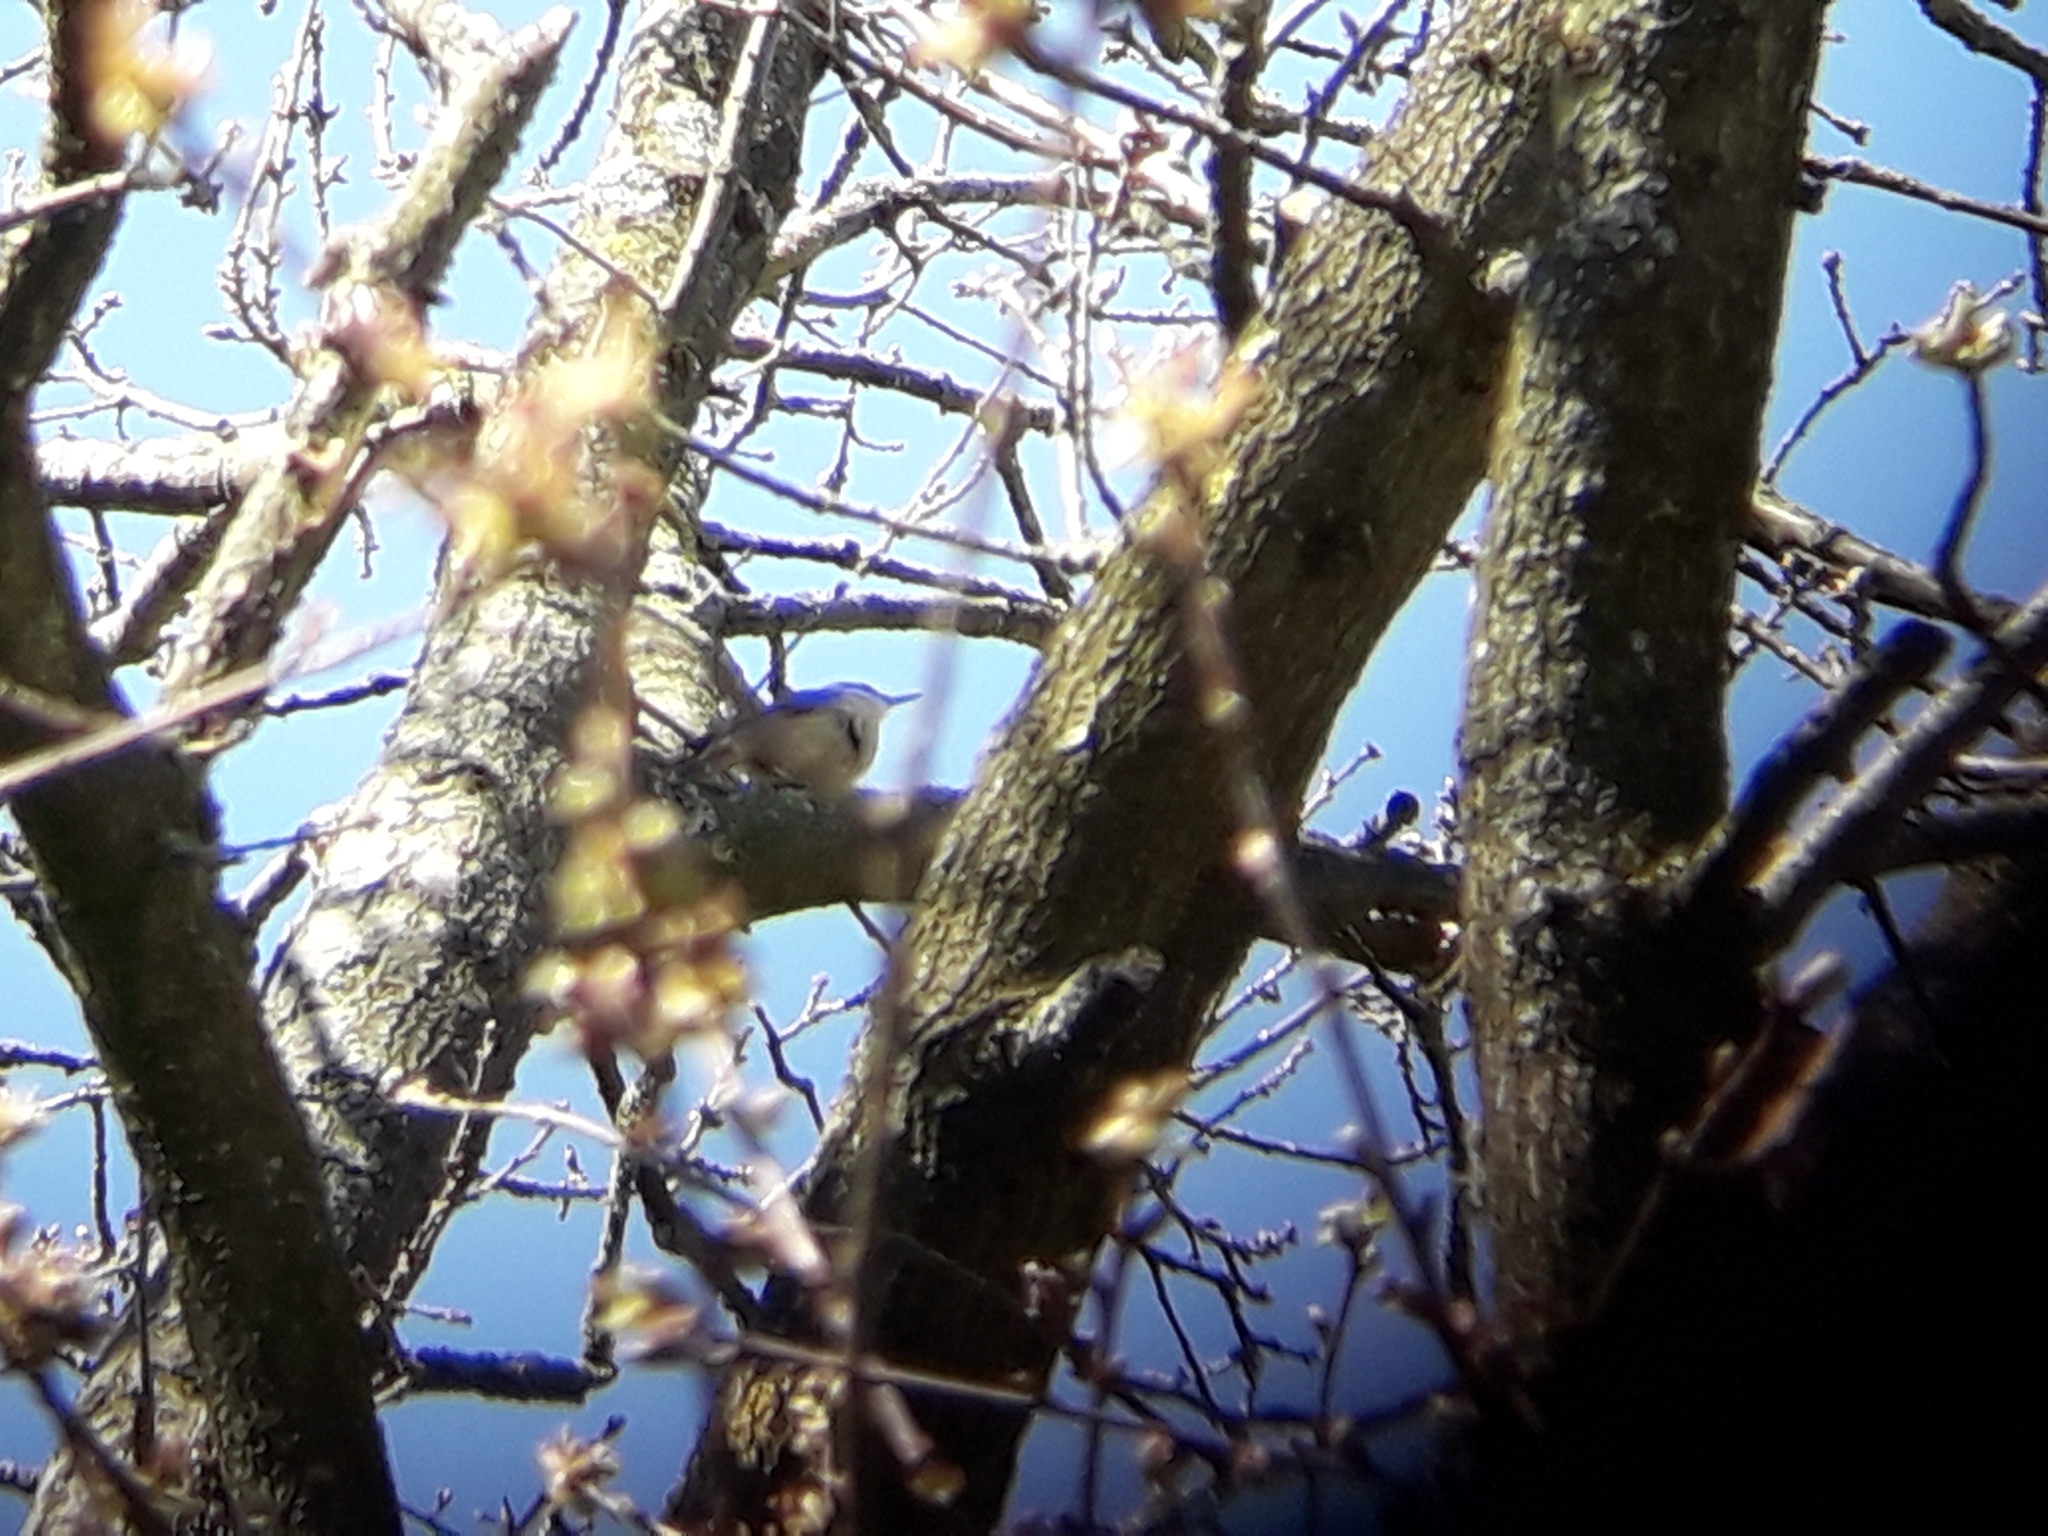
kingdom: Animalia
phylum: Chordata
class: Aves
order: Passeriformes
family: Sittidae
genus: Sitta
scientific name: Sitta europaea
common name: Eurasian nuthatch
